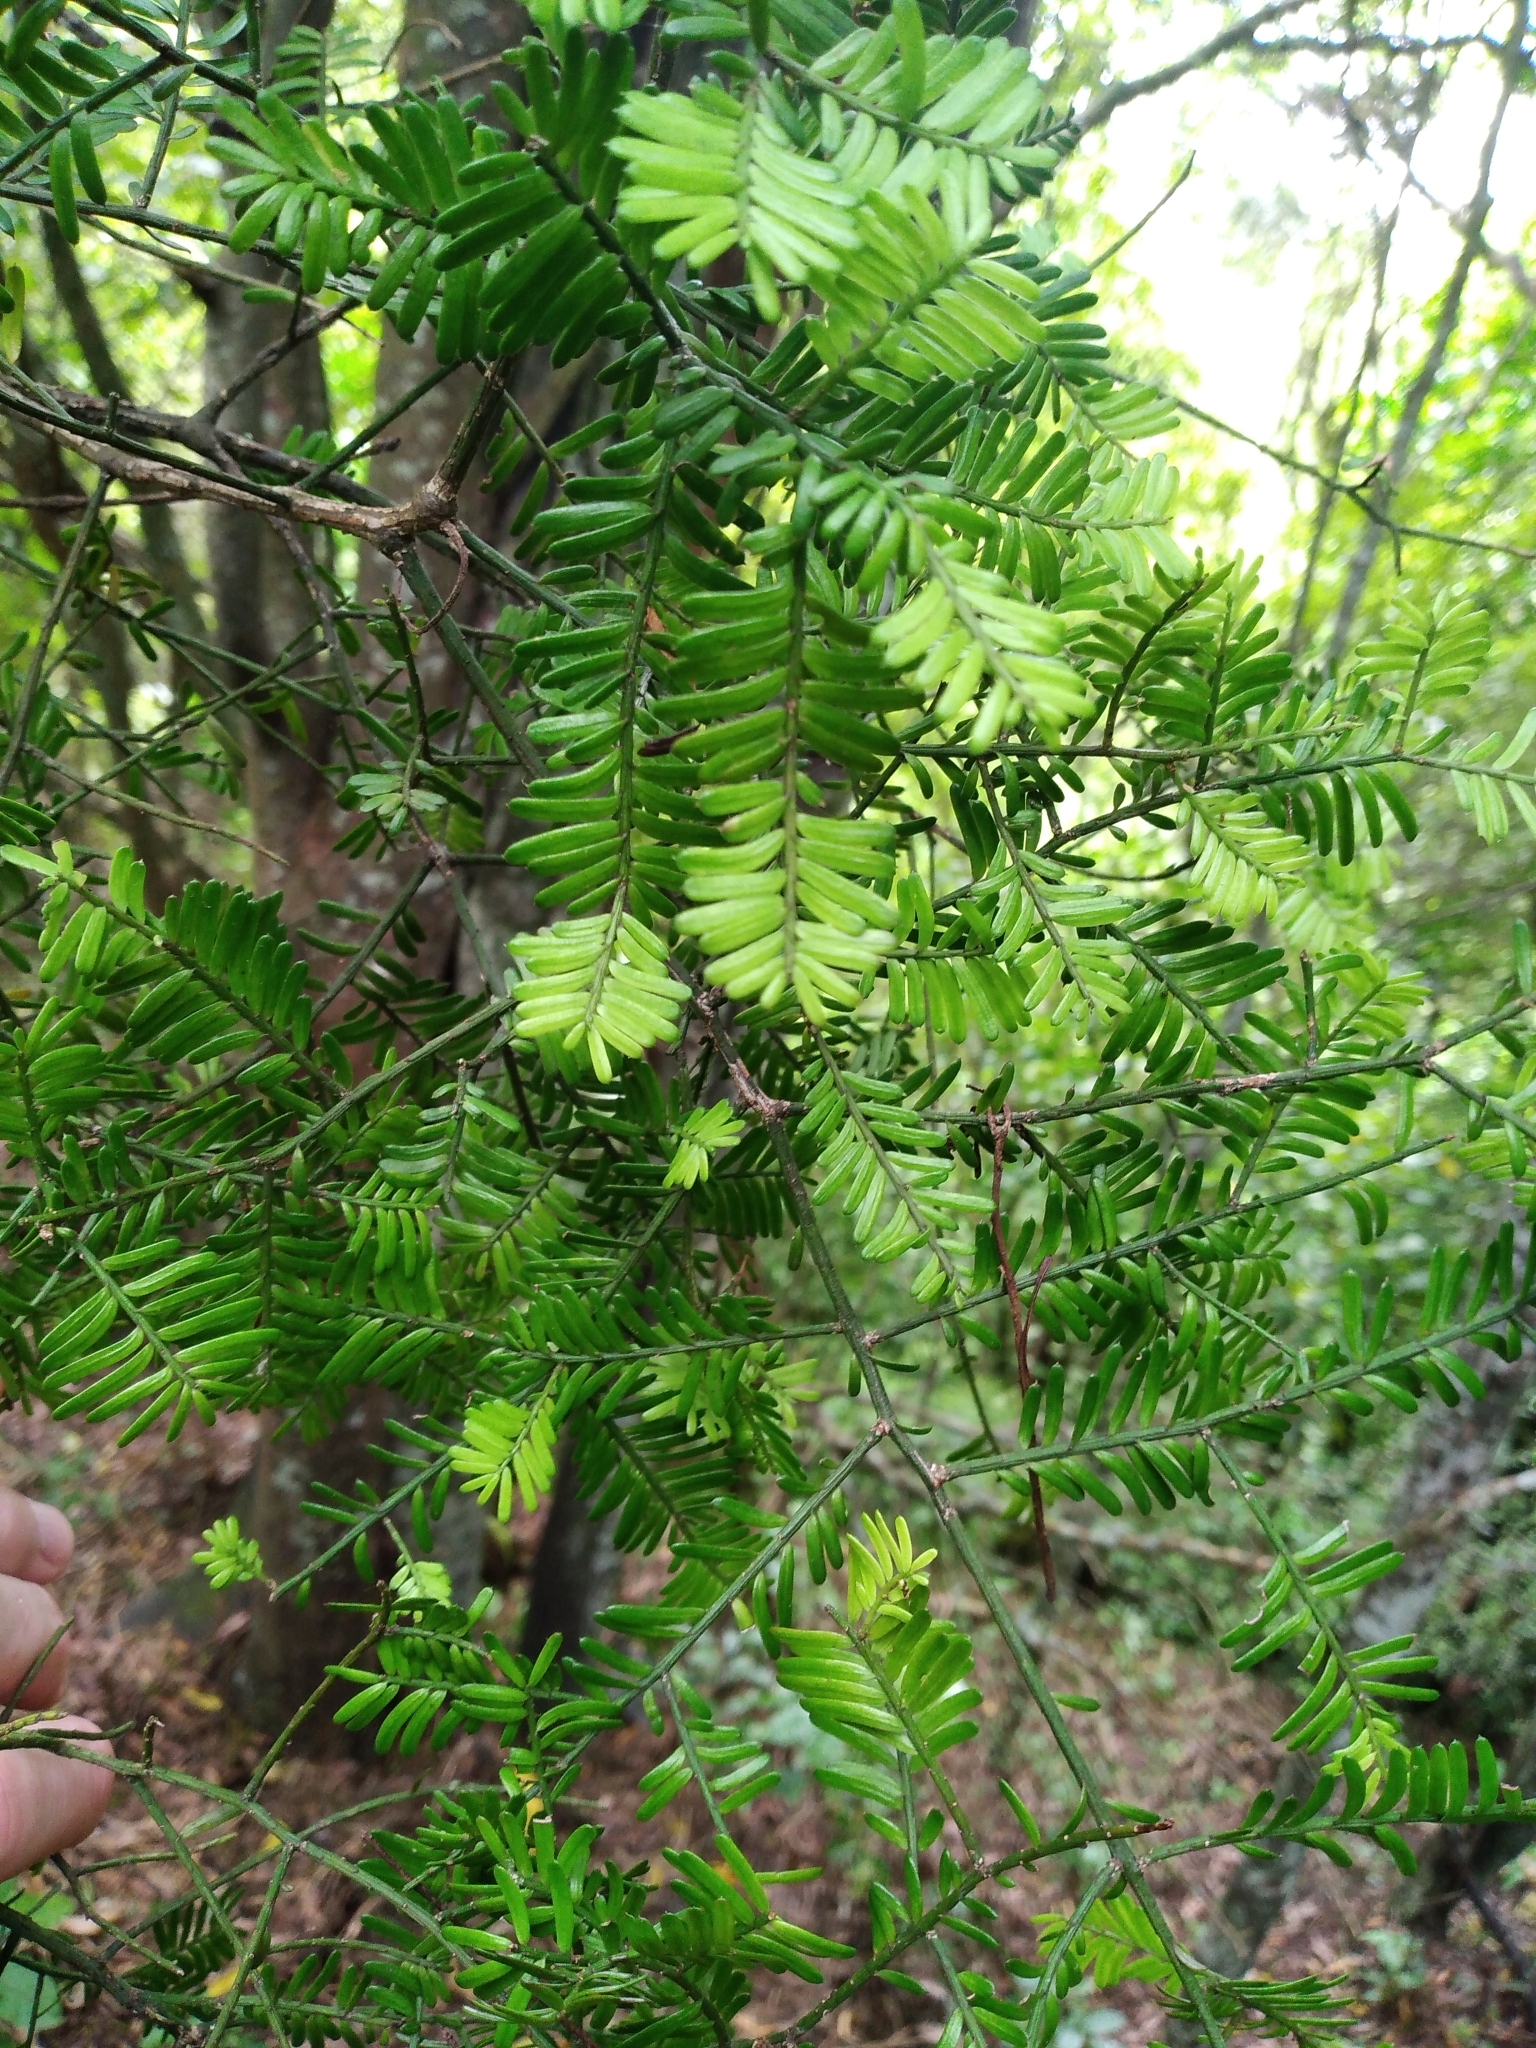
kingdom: Plantae
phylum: Tracheophyta
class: Pinopsida
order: Pinales
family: Podocarpaceae
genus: Prumnopitys
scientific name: Prumnopitys taxifolia
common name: Matai
